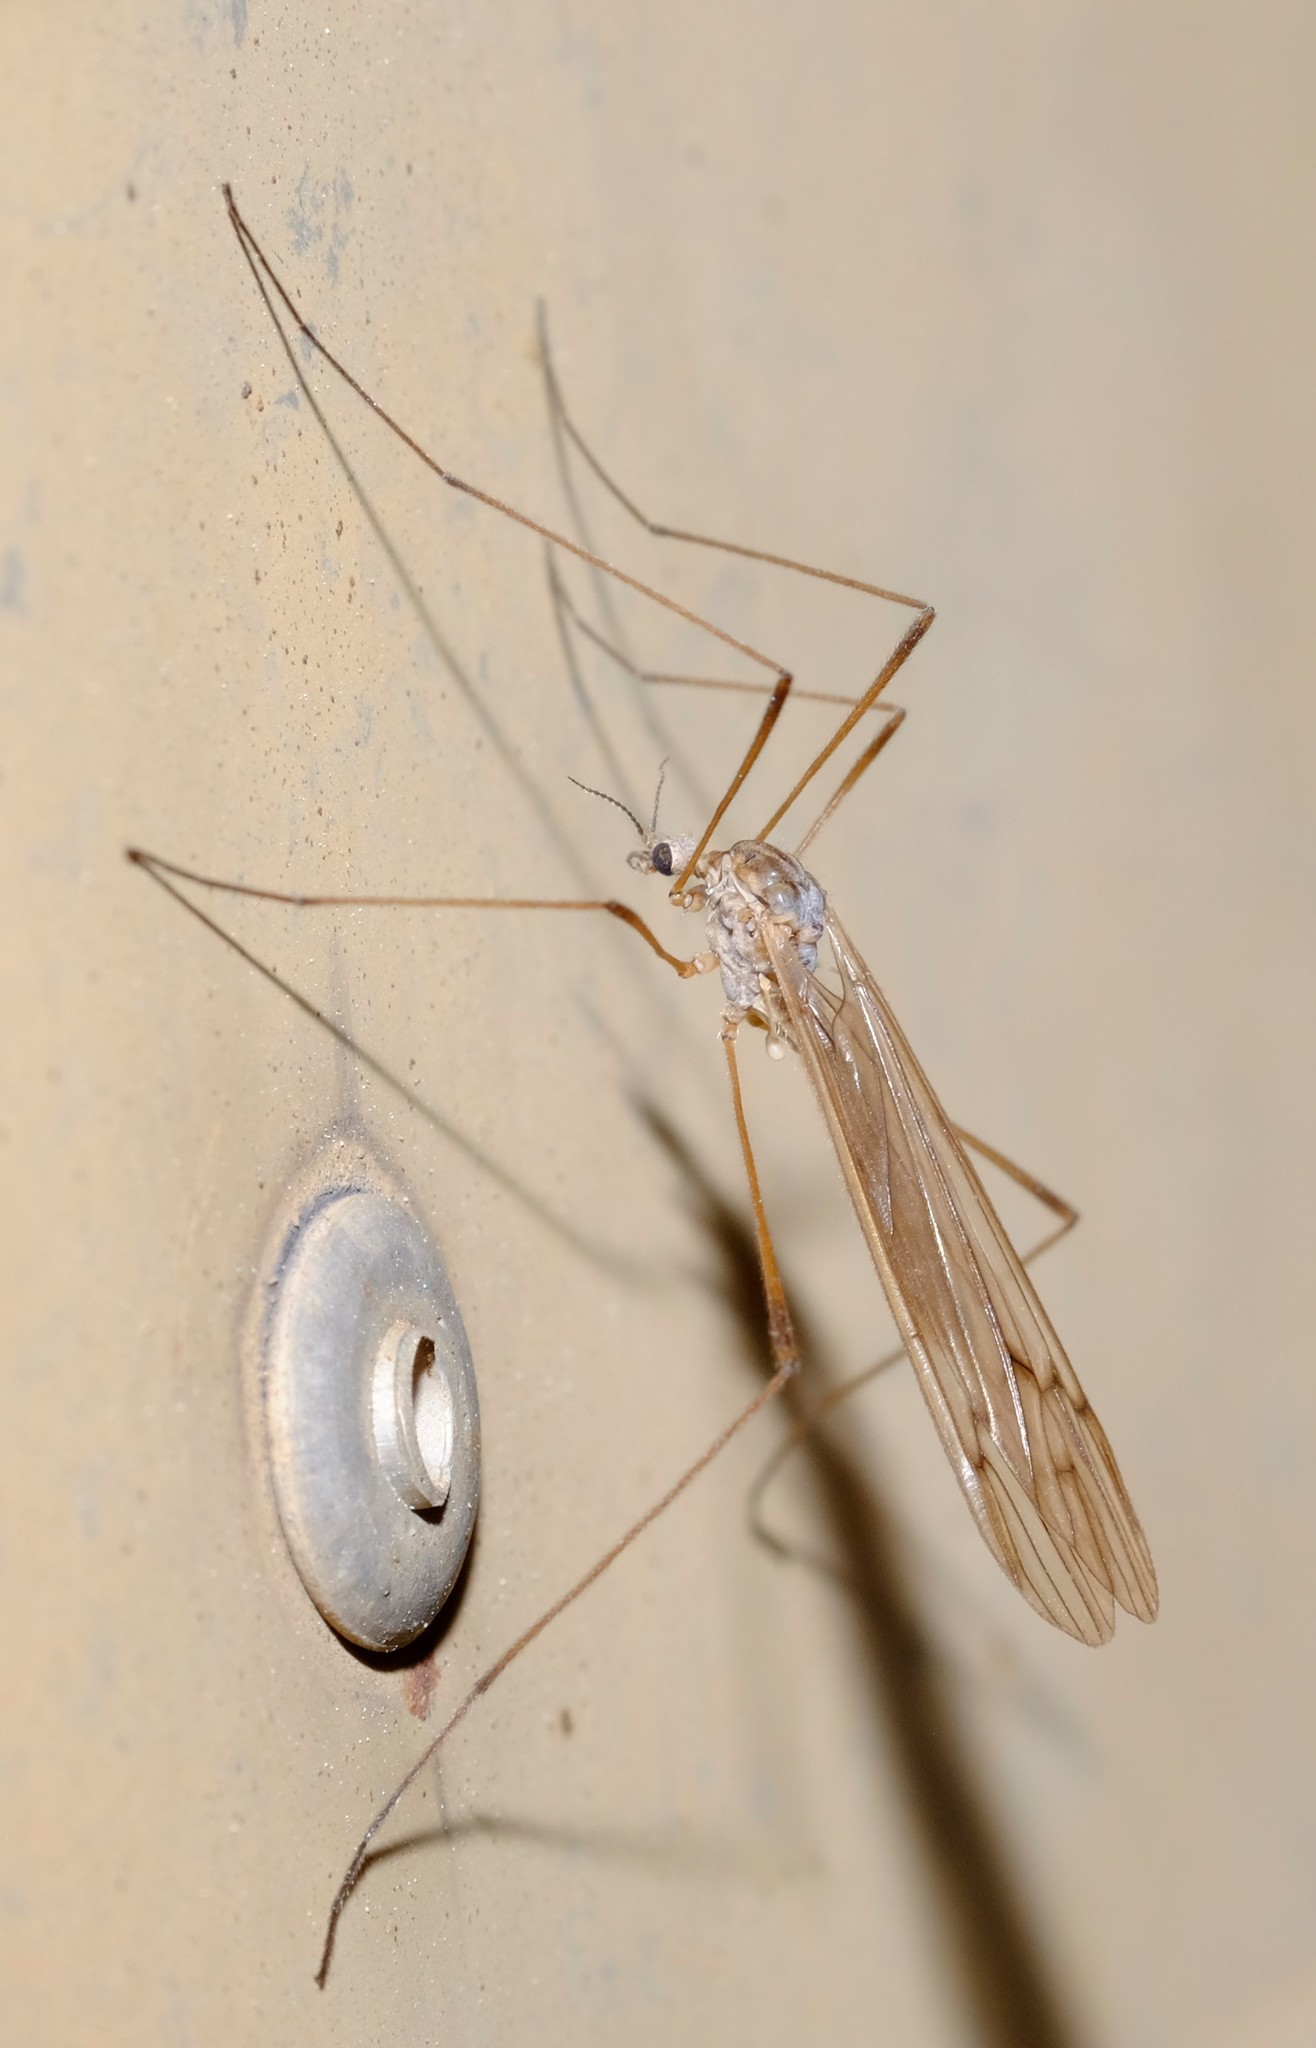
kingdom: Animalia
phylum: Arthropoda
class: Insecta
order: Diptera
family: Limoniidae
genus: Symplecta
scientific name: Symplecta pilipes
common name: Crane fly
